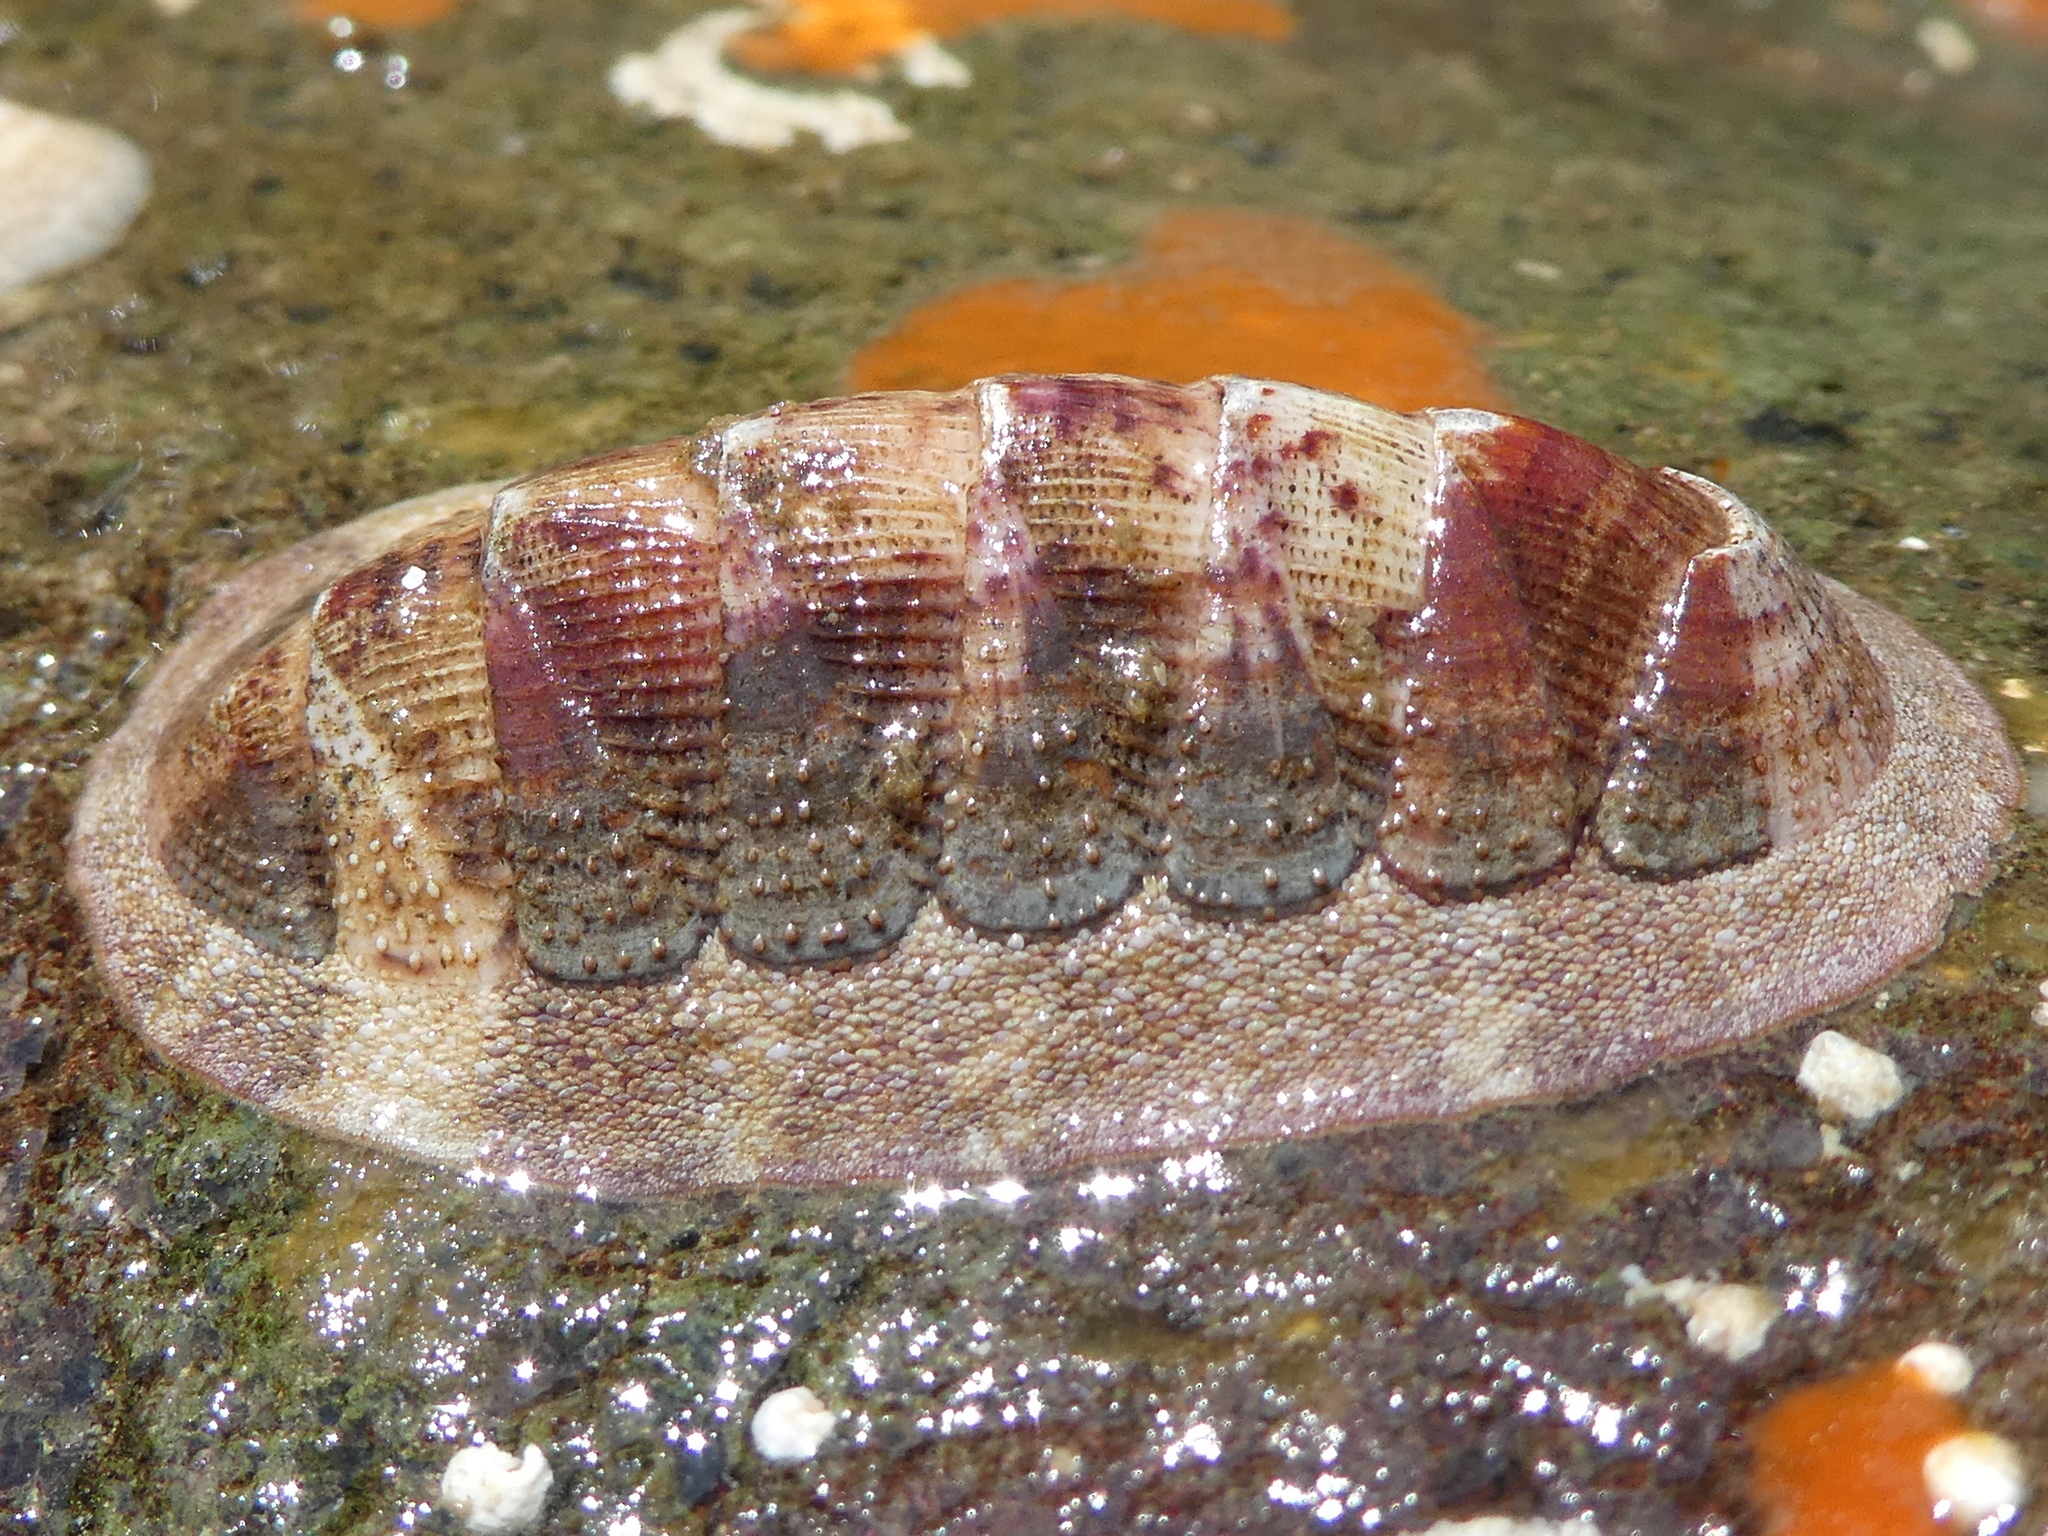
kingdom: Animalia
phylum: Mollusca
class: Polyplacophora
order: Chitonida
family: Ischnochitonidae
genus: Lepidozona
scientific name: Lepidozona mertensii
